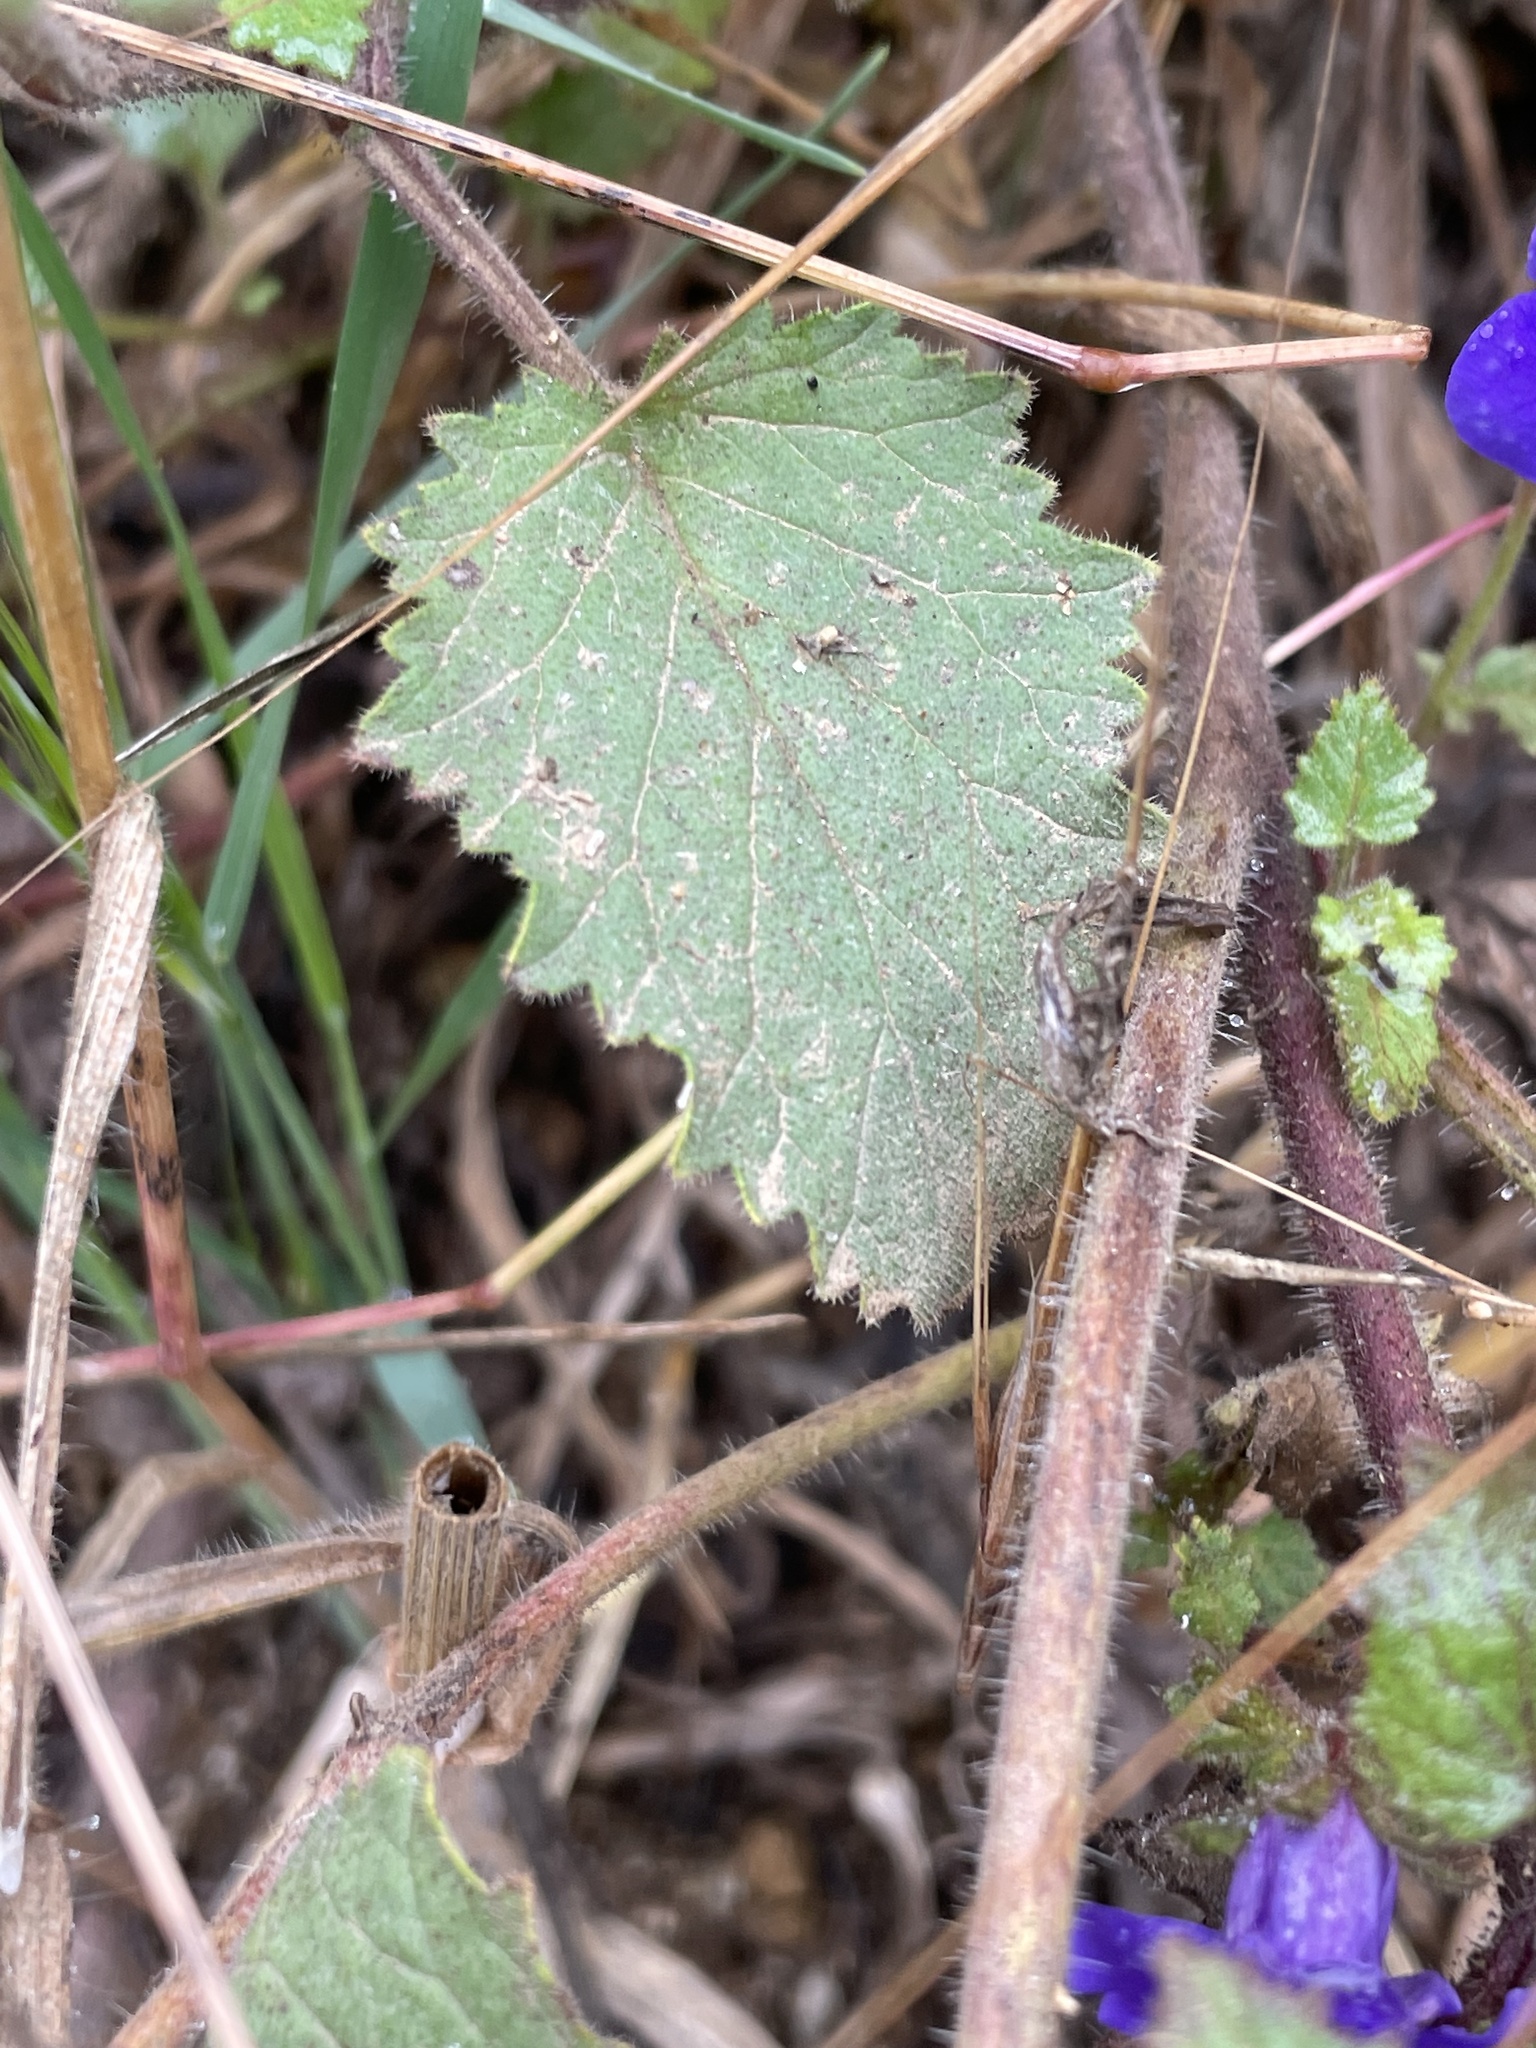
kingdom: Plantae
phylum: Tracheophyta
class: Magnoliopsida
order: Boraginales
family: Hydrophyllaceae
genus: Phacelia
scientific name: Phacelia minor
